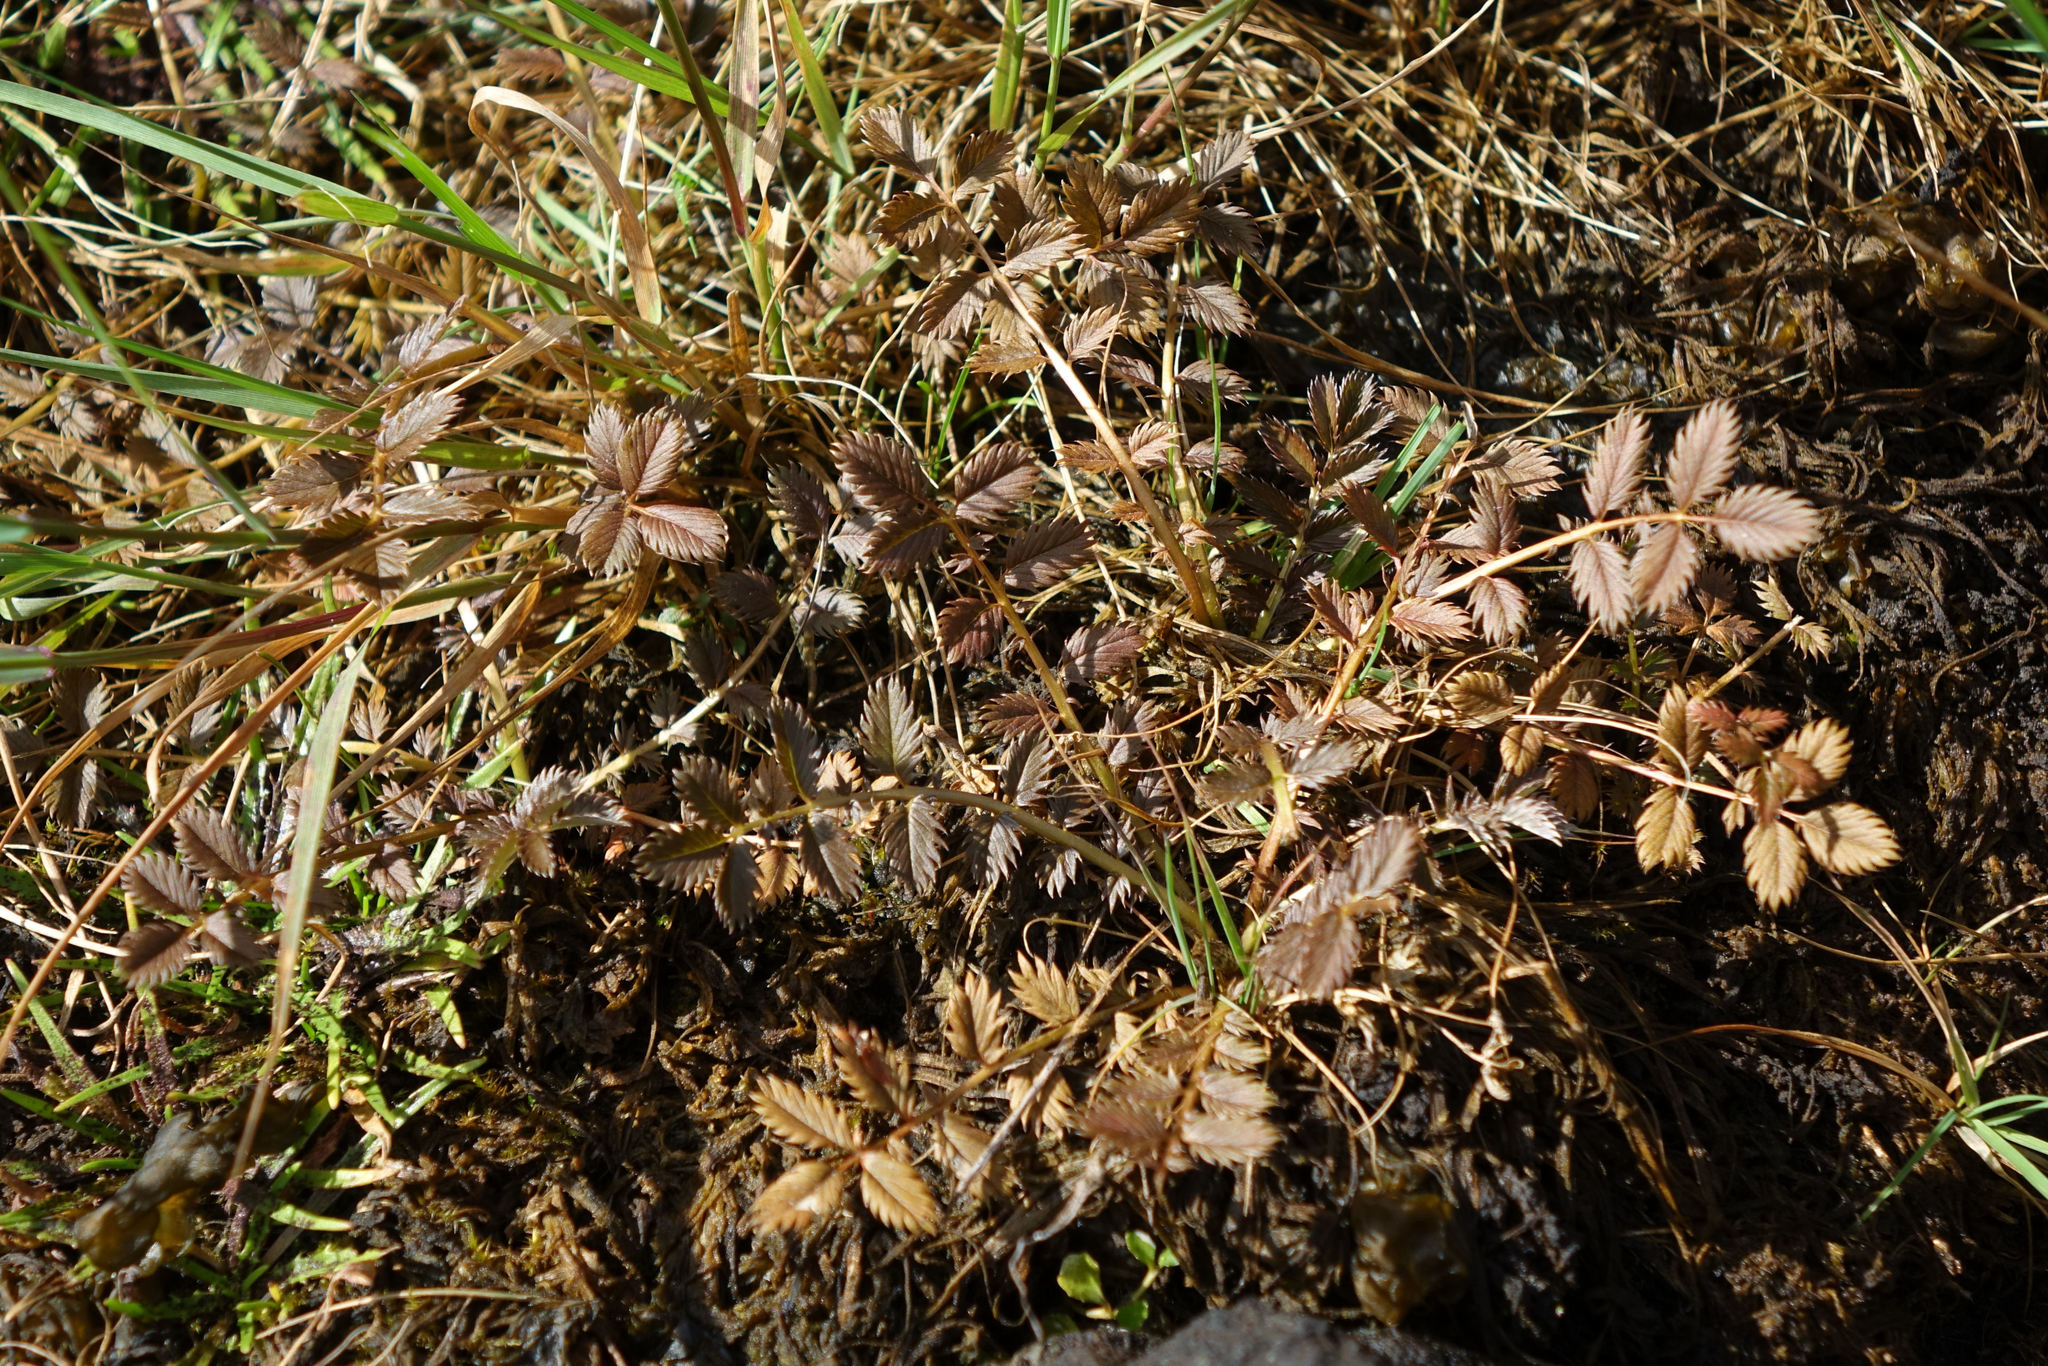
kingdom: Plantae
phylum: Tracheophyta
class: Magnoliopsida
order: Rosales
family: Rosaceae
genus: Argentina
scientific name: Argentina anserinoides
